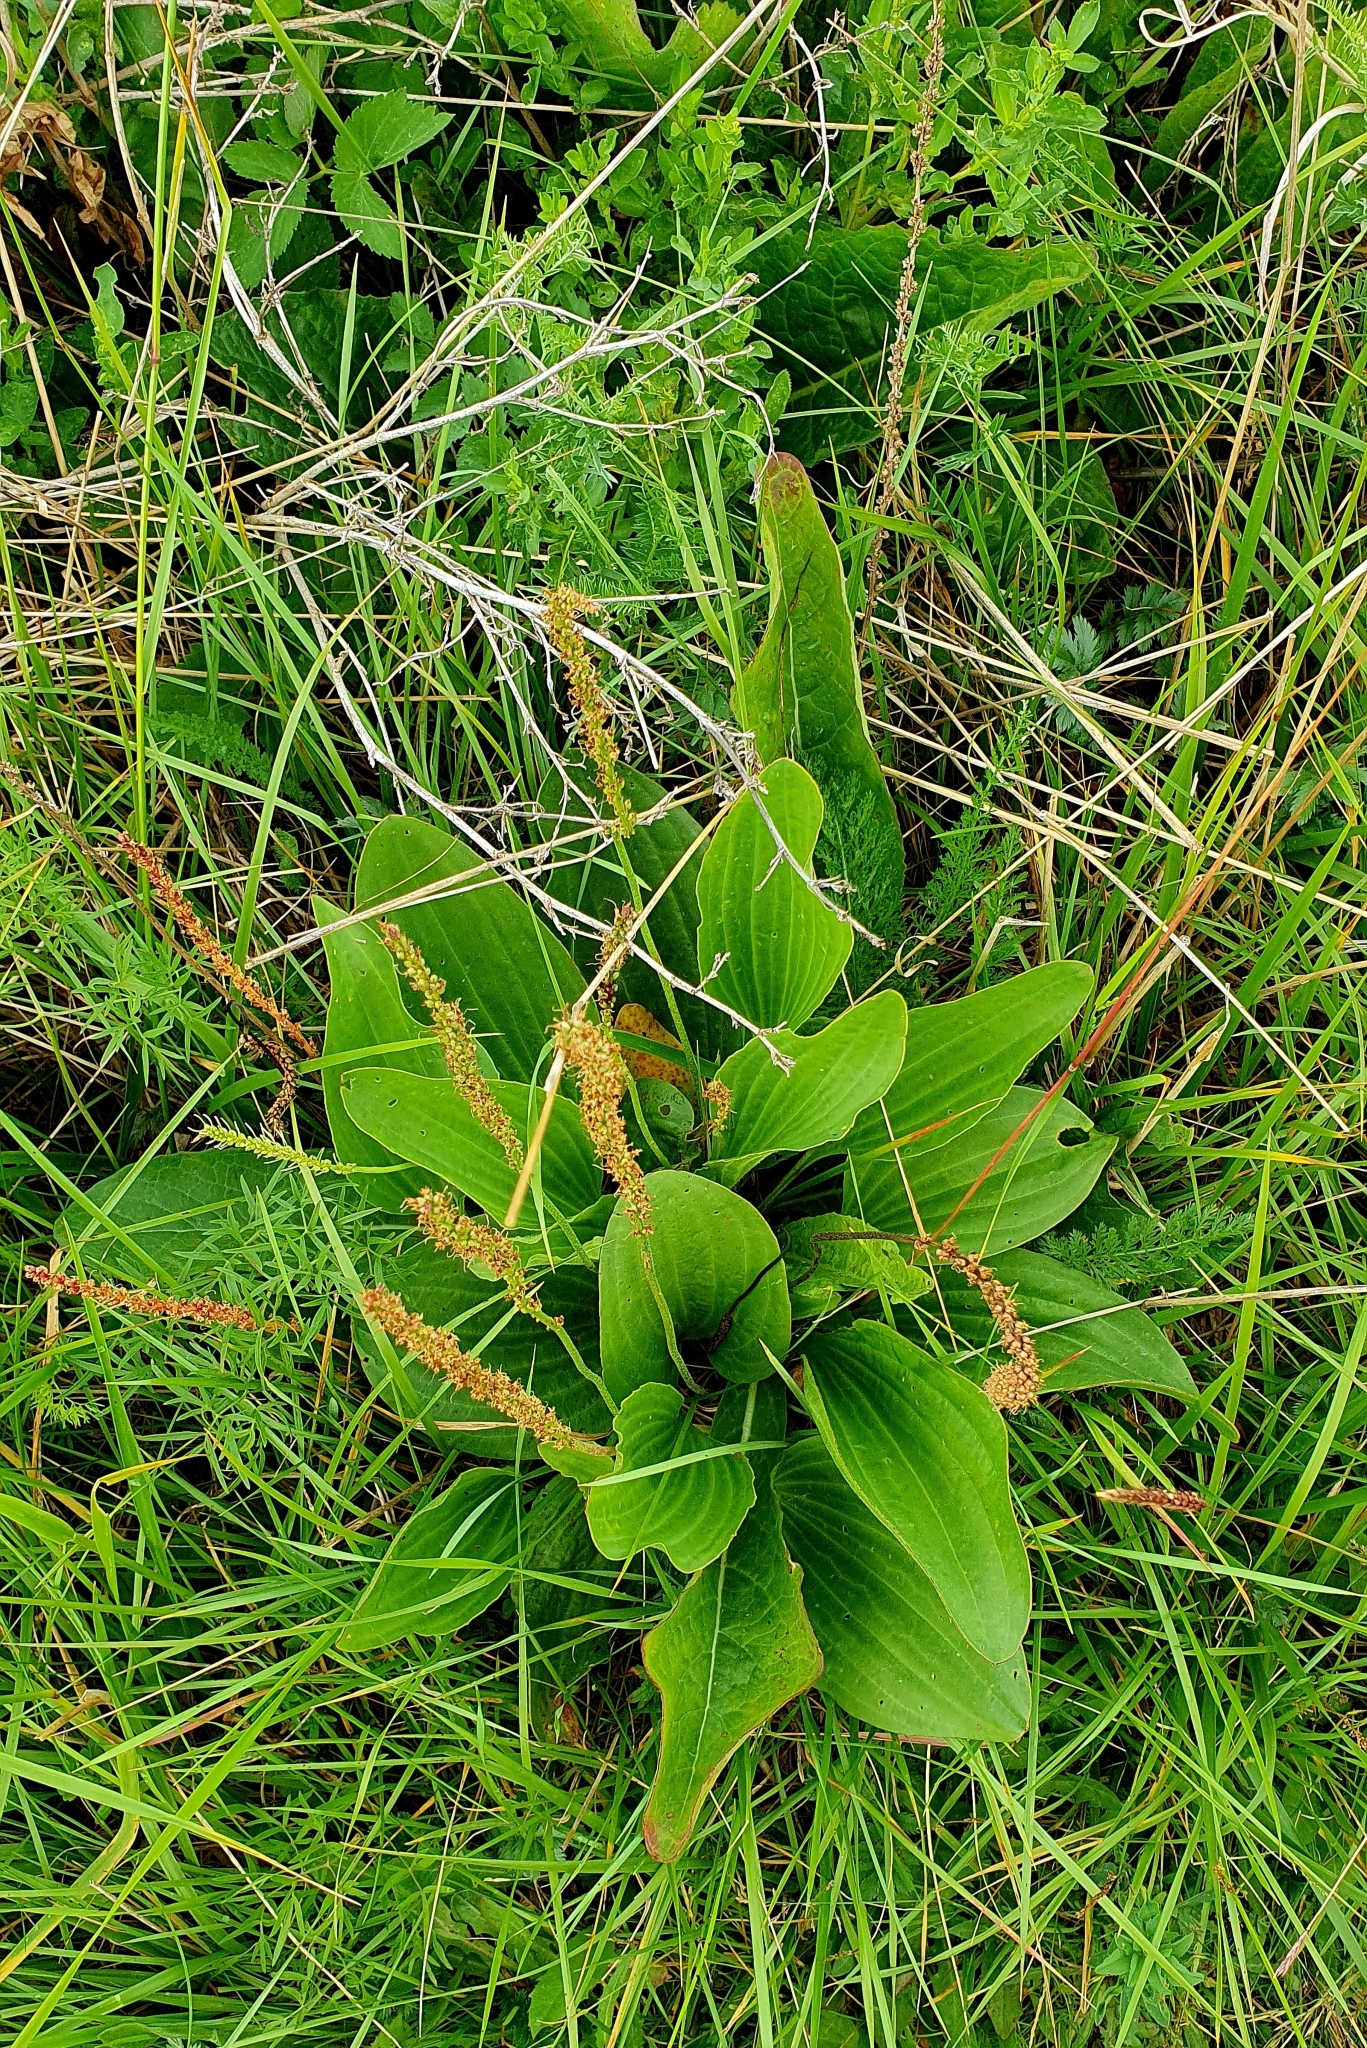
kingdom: Plantae
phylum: Tracheophyta
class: Magnoliopsida
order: Lamiales
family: Plantaginaceae
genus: Plantago
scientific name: Plantago cornuti
